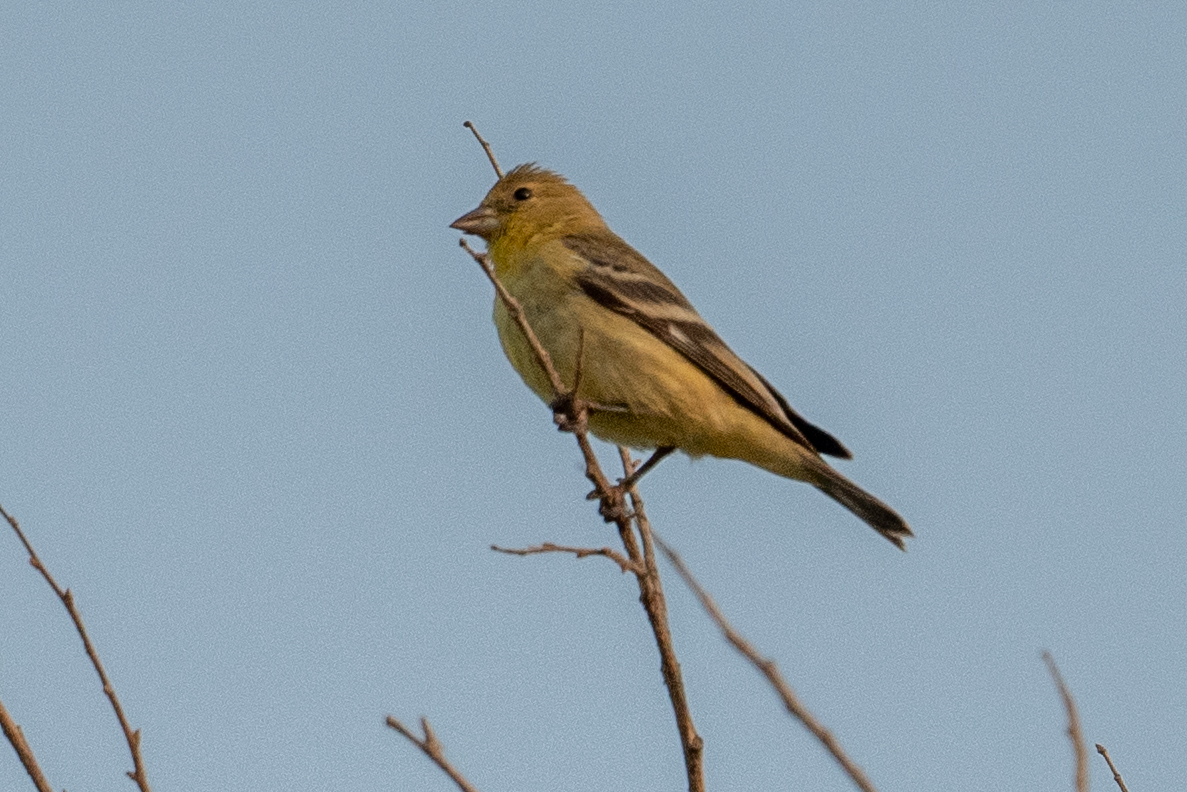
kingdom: Animalia
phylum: Chordata
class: Aves
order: Passeriformes
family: Fringillidae
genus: Spinus
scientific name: Spinus psaltria
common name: Lesser goldfinch
